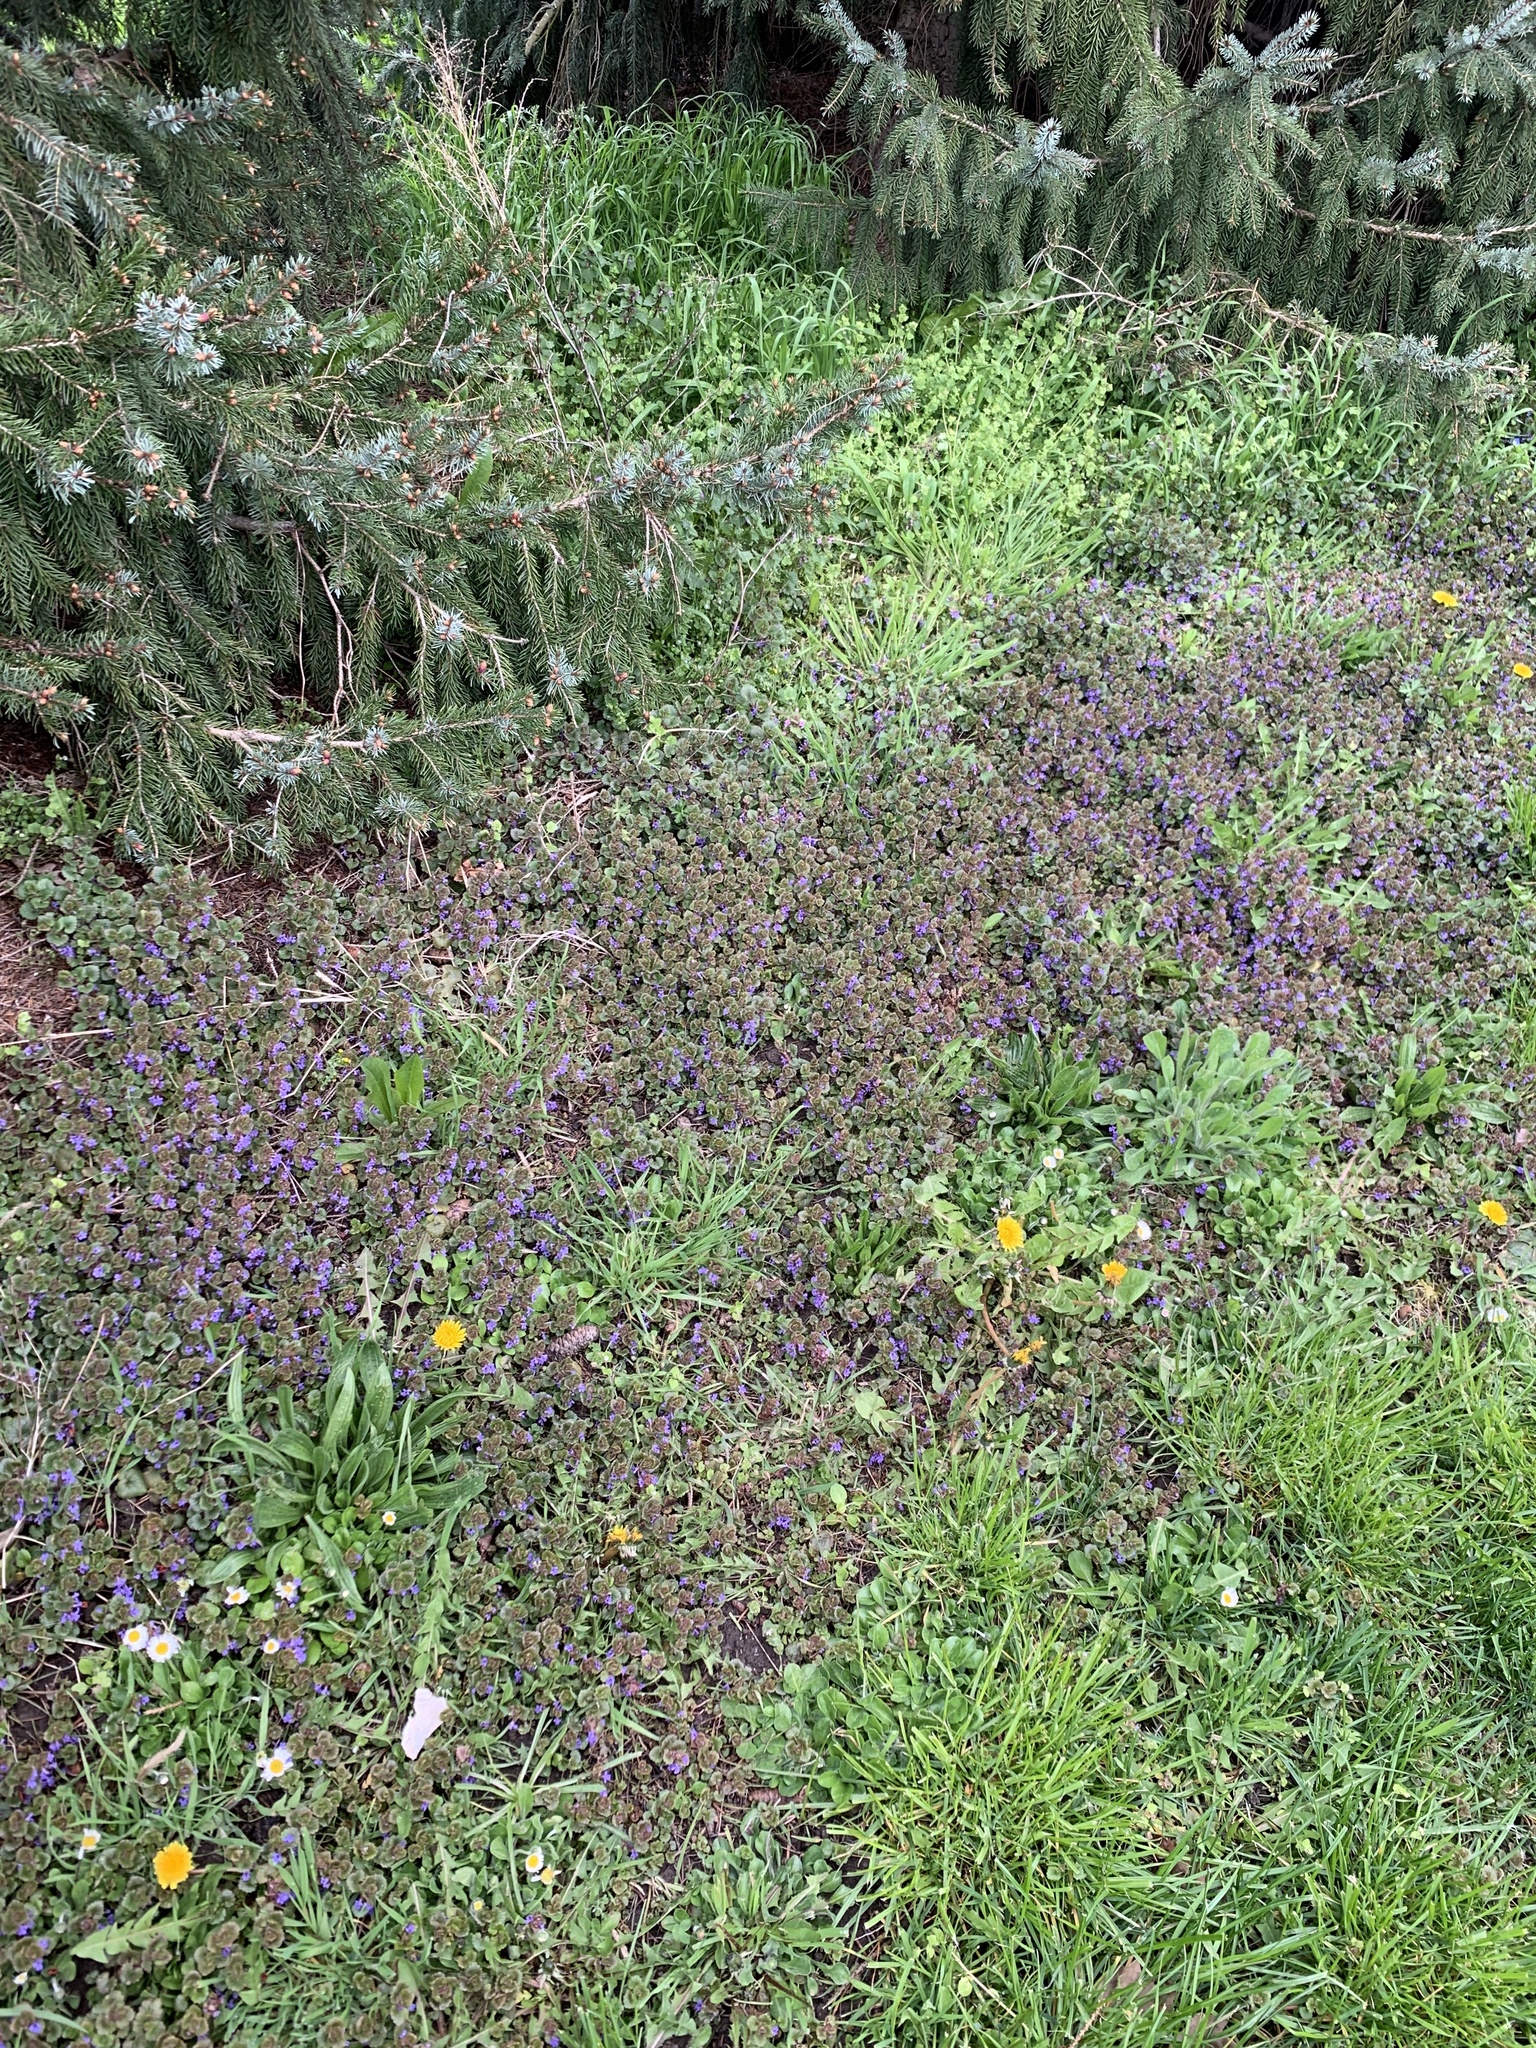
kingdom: Plantae
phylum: Tracheophyta
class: Magnoliopsida
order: Lamiales
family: Lamiaceae
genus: Glechoma
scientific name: Glechoma hederacea
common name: Ground ivy
